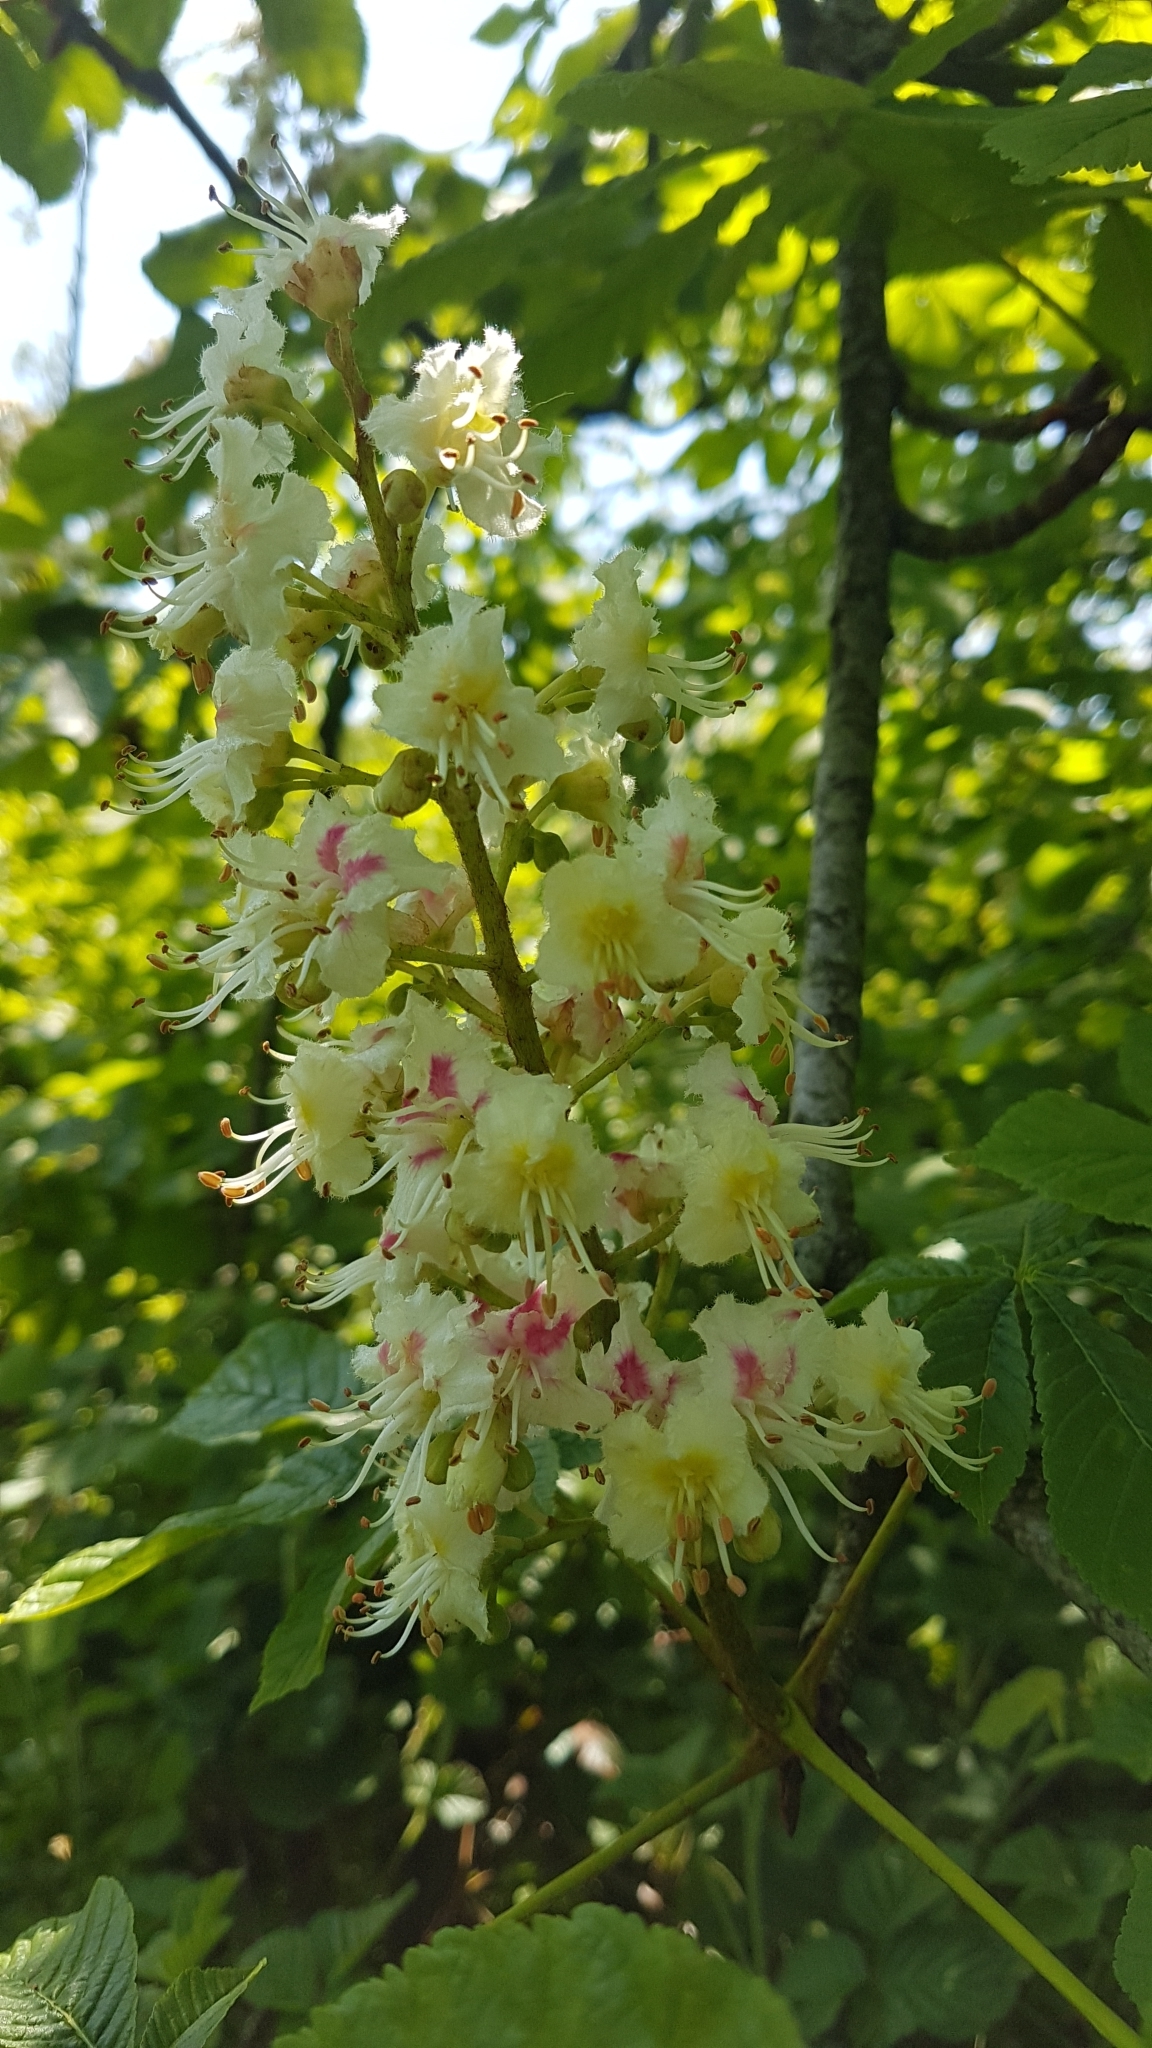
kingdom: Plantae
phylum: Tracheophyta
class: Magnoliopsida
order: Sapindales
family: Sapindaceae
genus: Aesculus
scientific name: Aesculus hippocastanum
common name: Horse-chestnut
